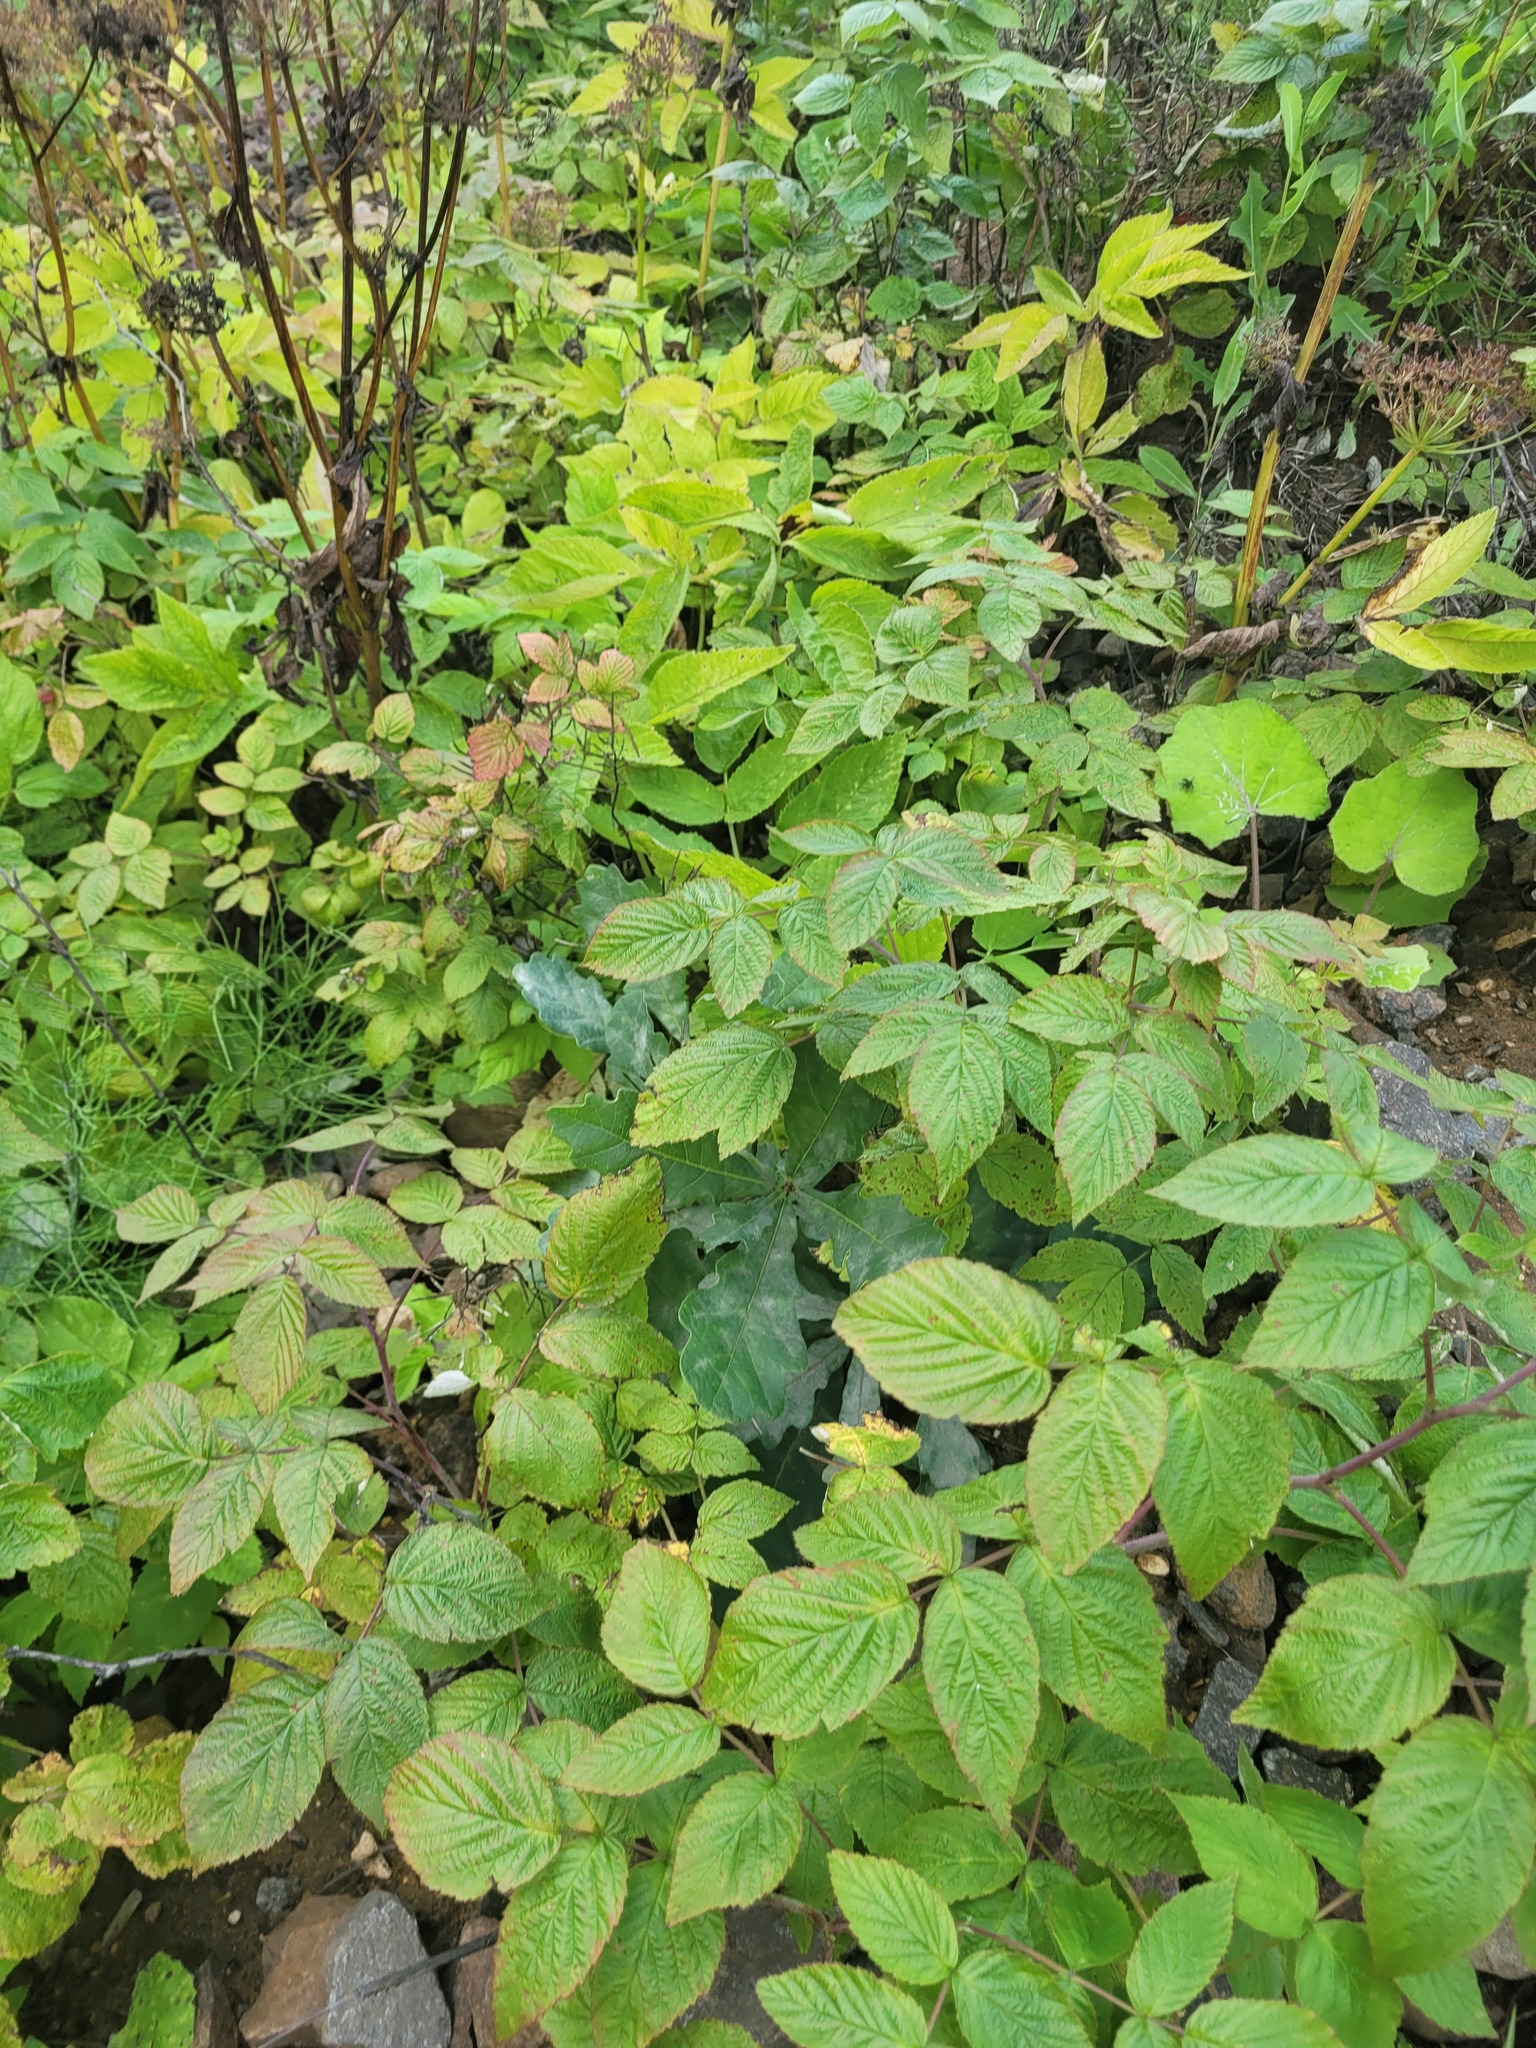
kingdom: Plantae
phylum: Tracheophyta
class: Magnoliopsida
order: Rosales
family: Rosaceae
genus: Rubus
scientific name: Rubus idaeus
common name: Raspberry
